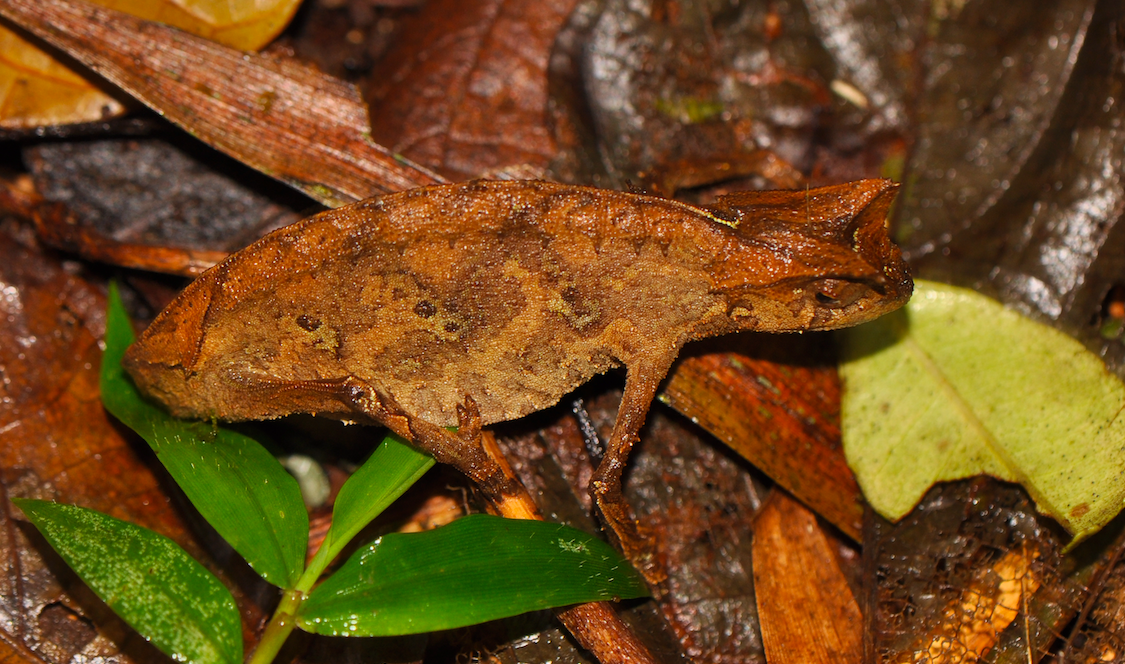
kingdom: Animalia
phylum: Chordata
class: Squamata
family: Chamaeleonidae
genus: Brookesia
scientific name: Brookesia therezieni
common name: Perinet leaf chameleon
